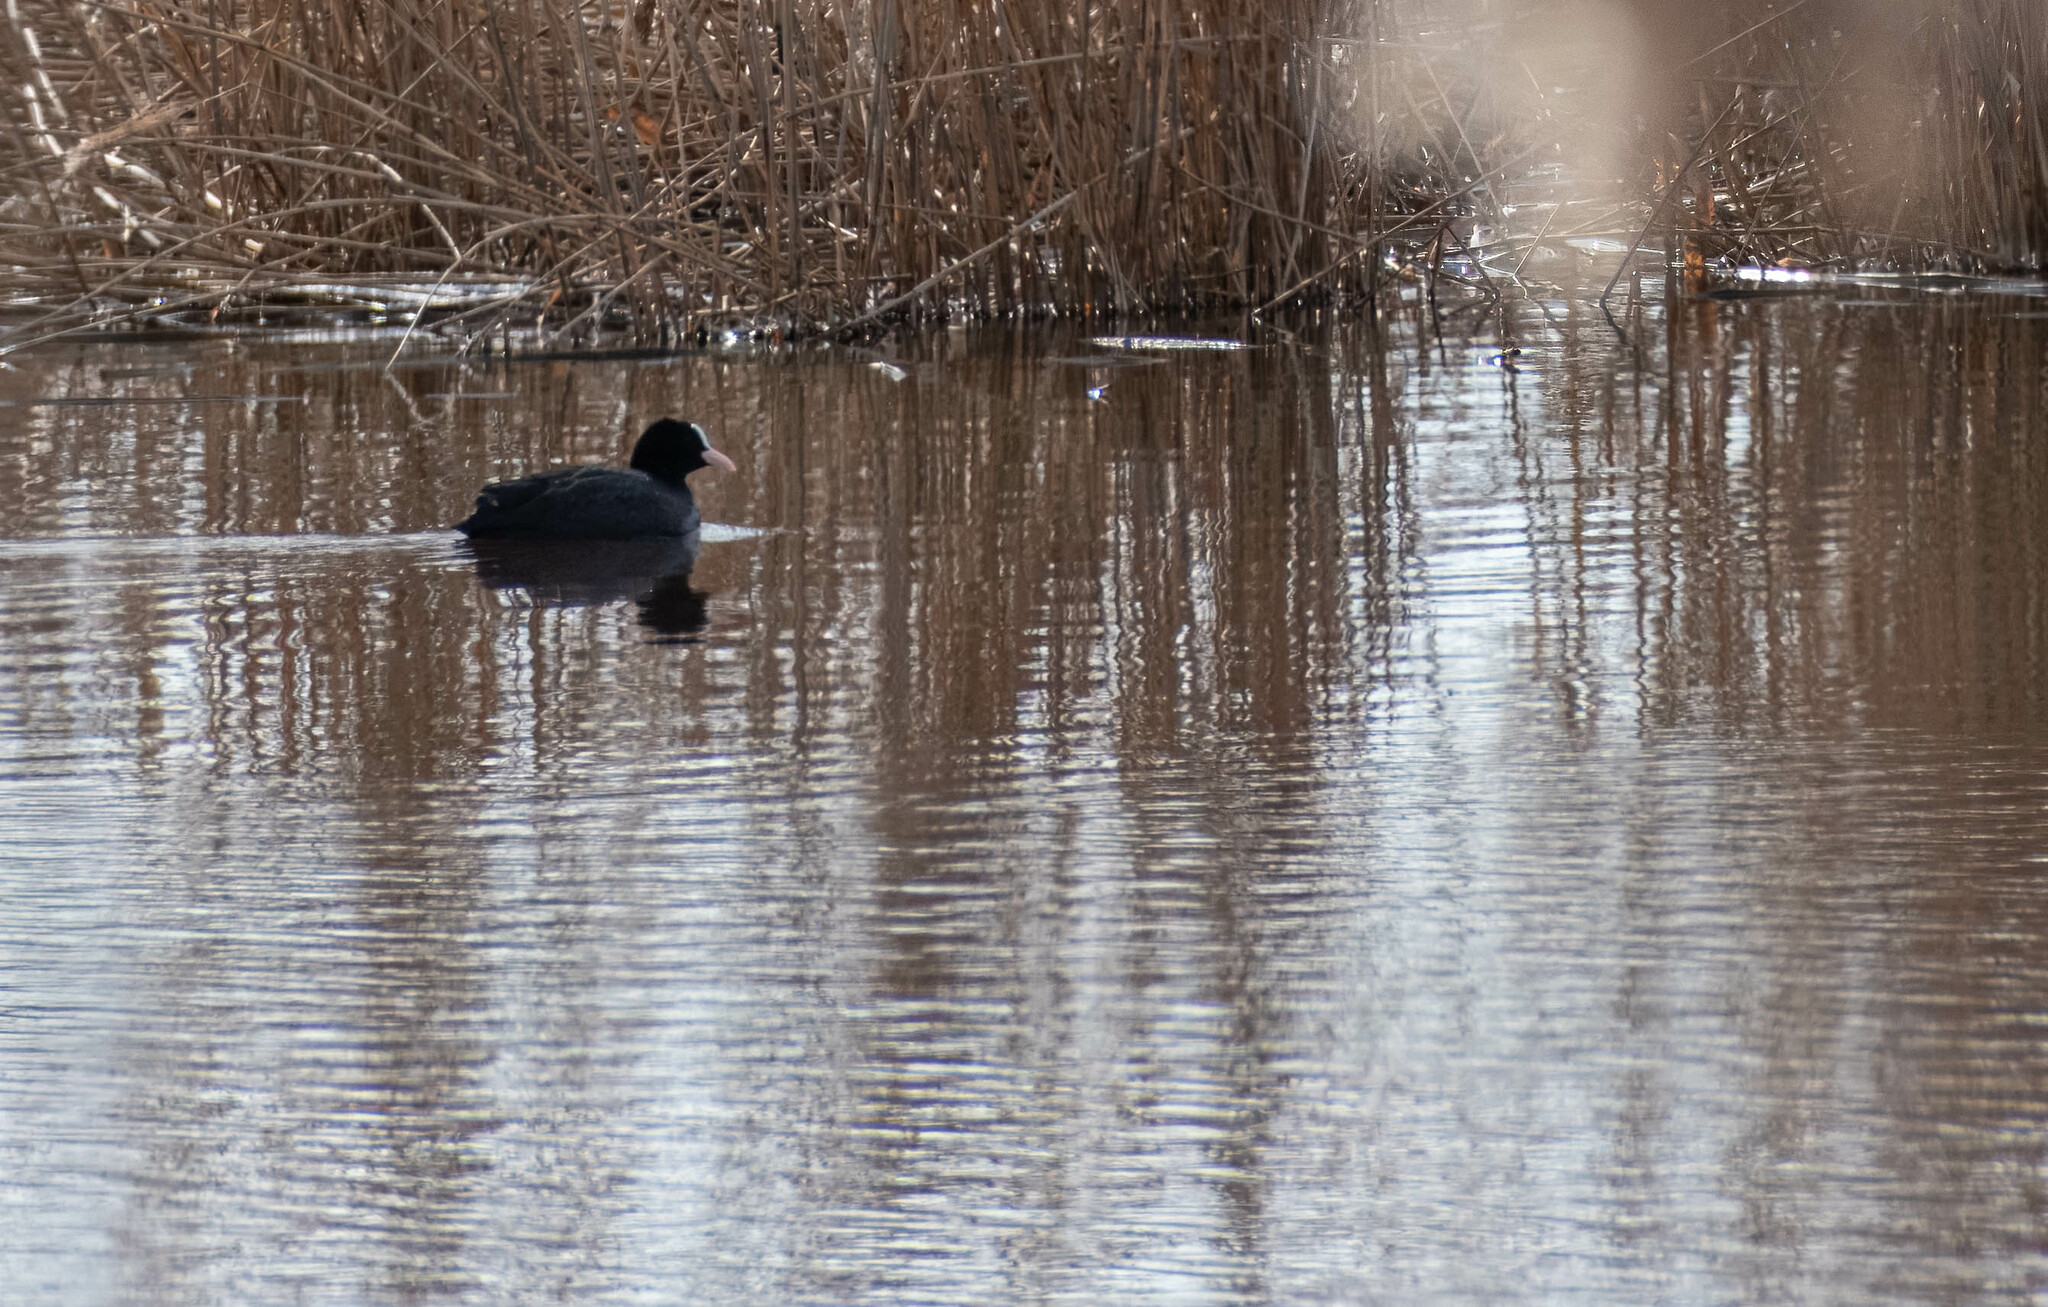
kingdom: Animalia
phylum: Chordata
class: Aves
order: Gruiformes
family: Rallidae
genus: Fulica
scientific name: Fulica atra
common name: Eurasian coot
